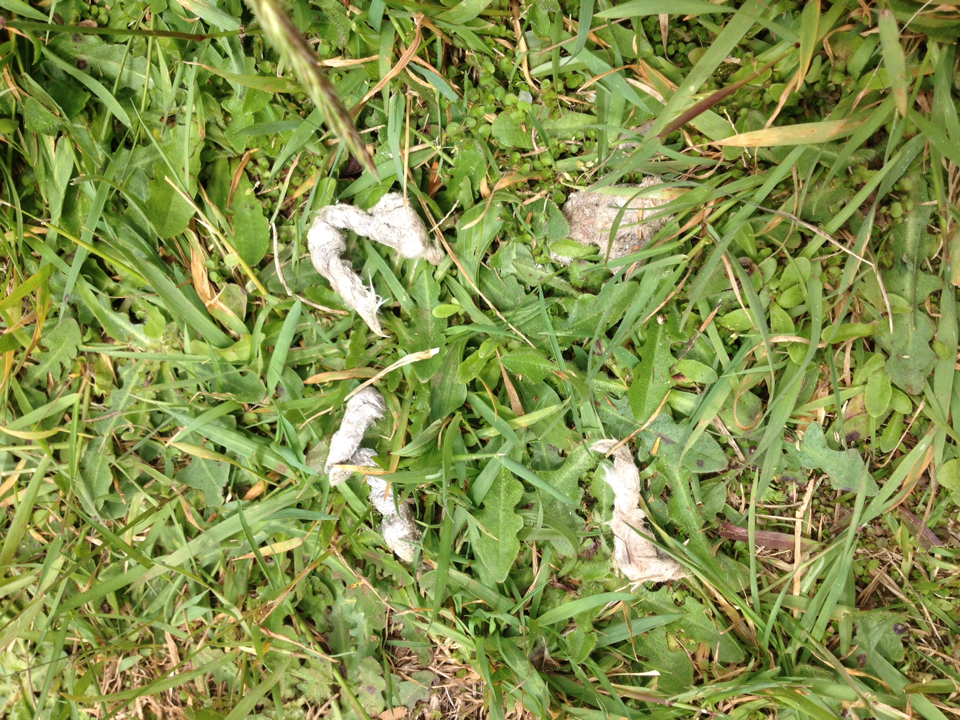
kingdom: Animalia
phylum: Chordata
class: Mammalia
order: Carnivora
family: Felidae
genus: Felis
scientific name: Felis catus
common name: Domestic cat
